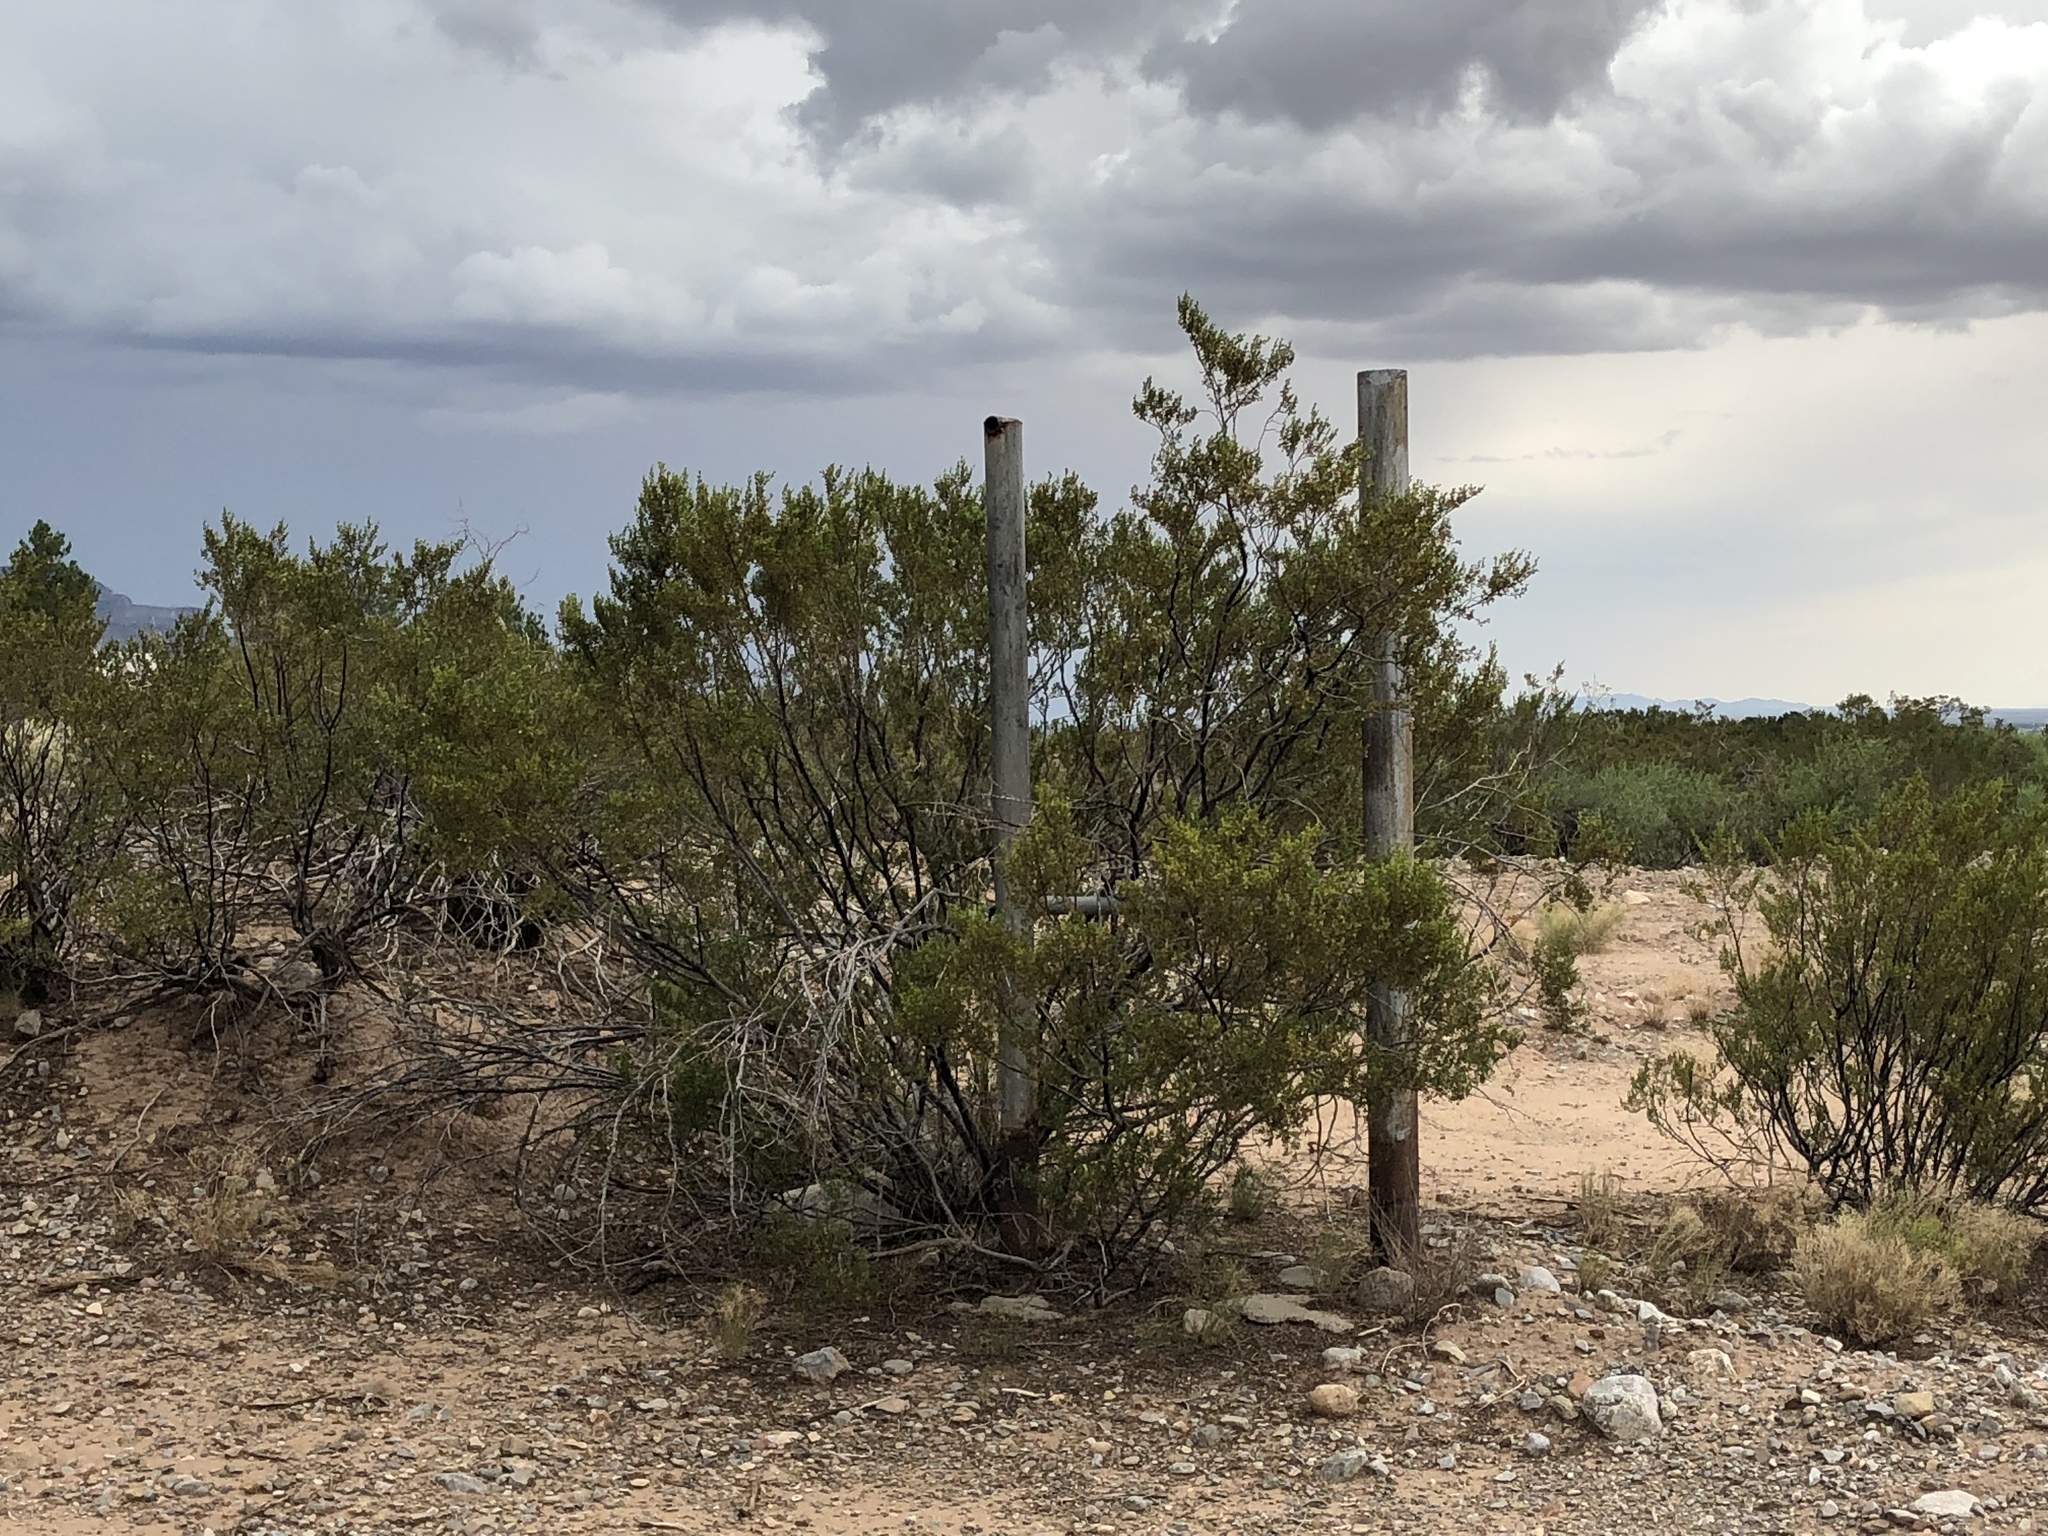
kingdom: Plantae
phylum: Tracheophyta
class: Magnoliopsida
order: Zygophyllales
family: Zygophyllaceae
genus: Larrea
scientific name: Larrea tridentata
